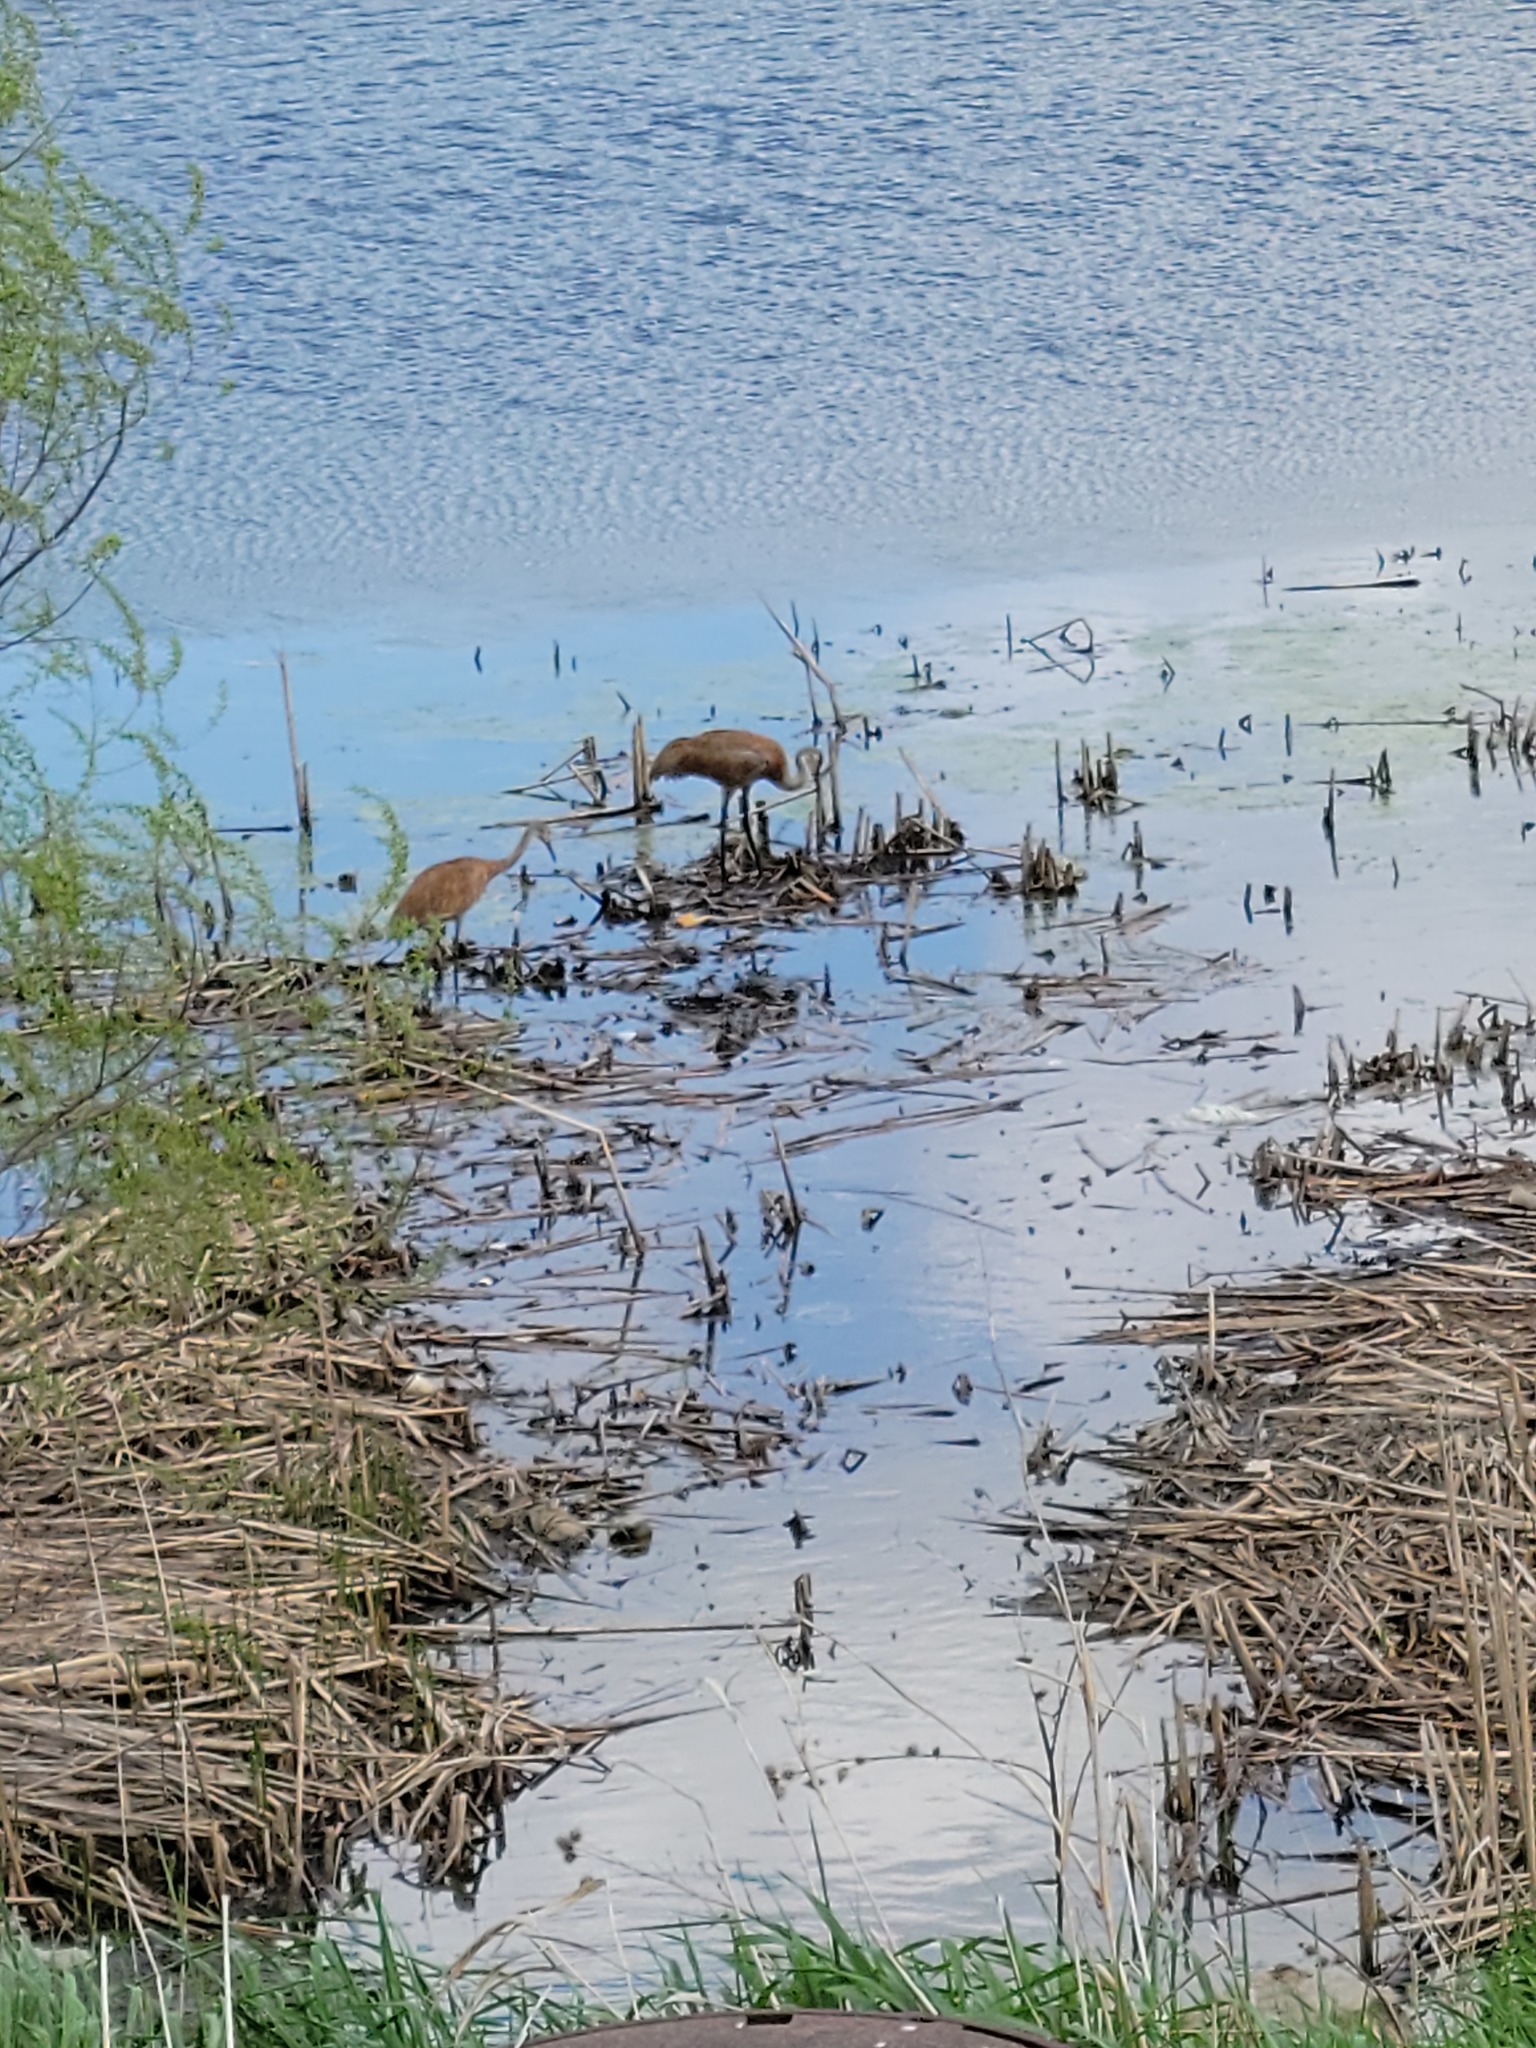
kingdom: Animalia
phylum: Chordata
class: Aves
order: Gruiformes
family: Gruidae
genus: Grus
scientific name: Grus canadensis
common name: Sandhill crane
